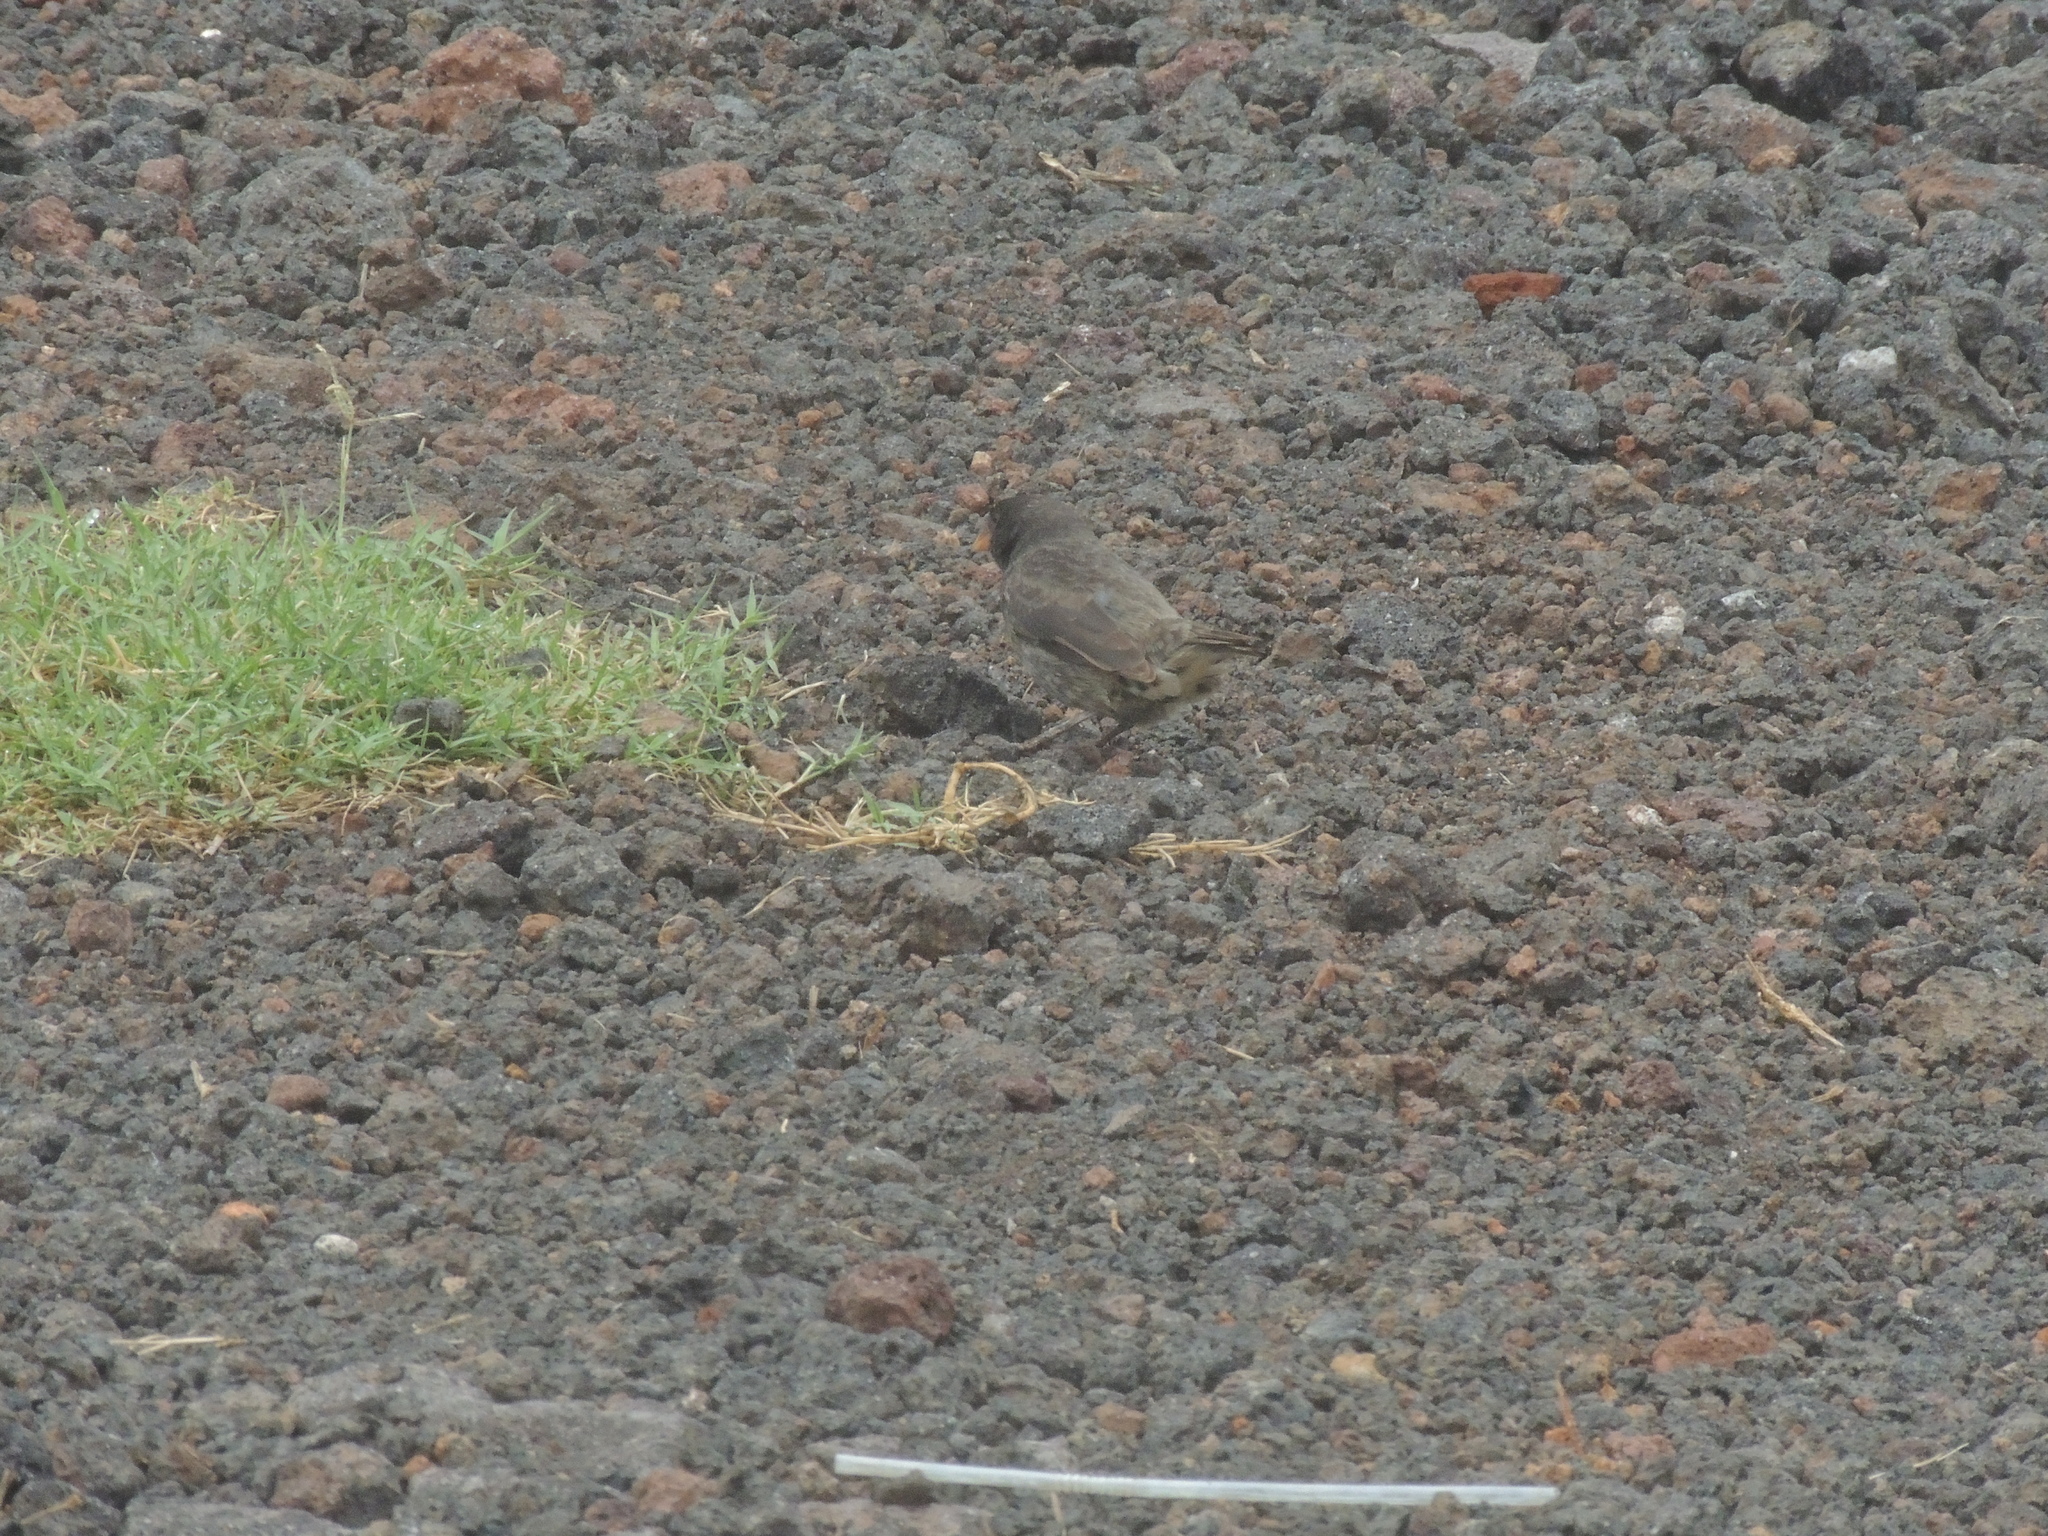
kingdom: Animalia
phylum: Chordata
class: Aves
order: Passeriformes
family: Thraupidae
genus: Geospiza
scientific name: Geospiza fuliginosa
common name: Small ground finch
